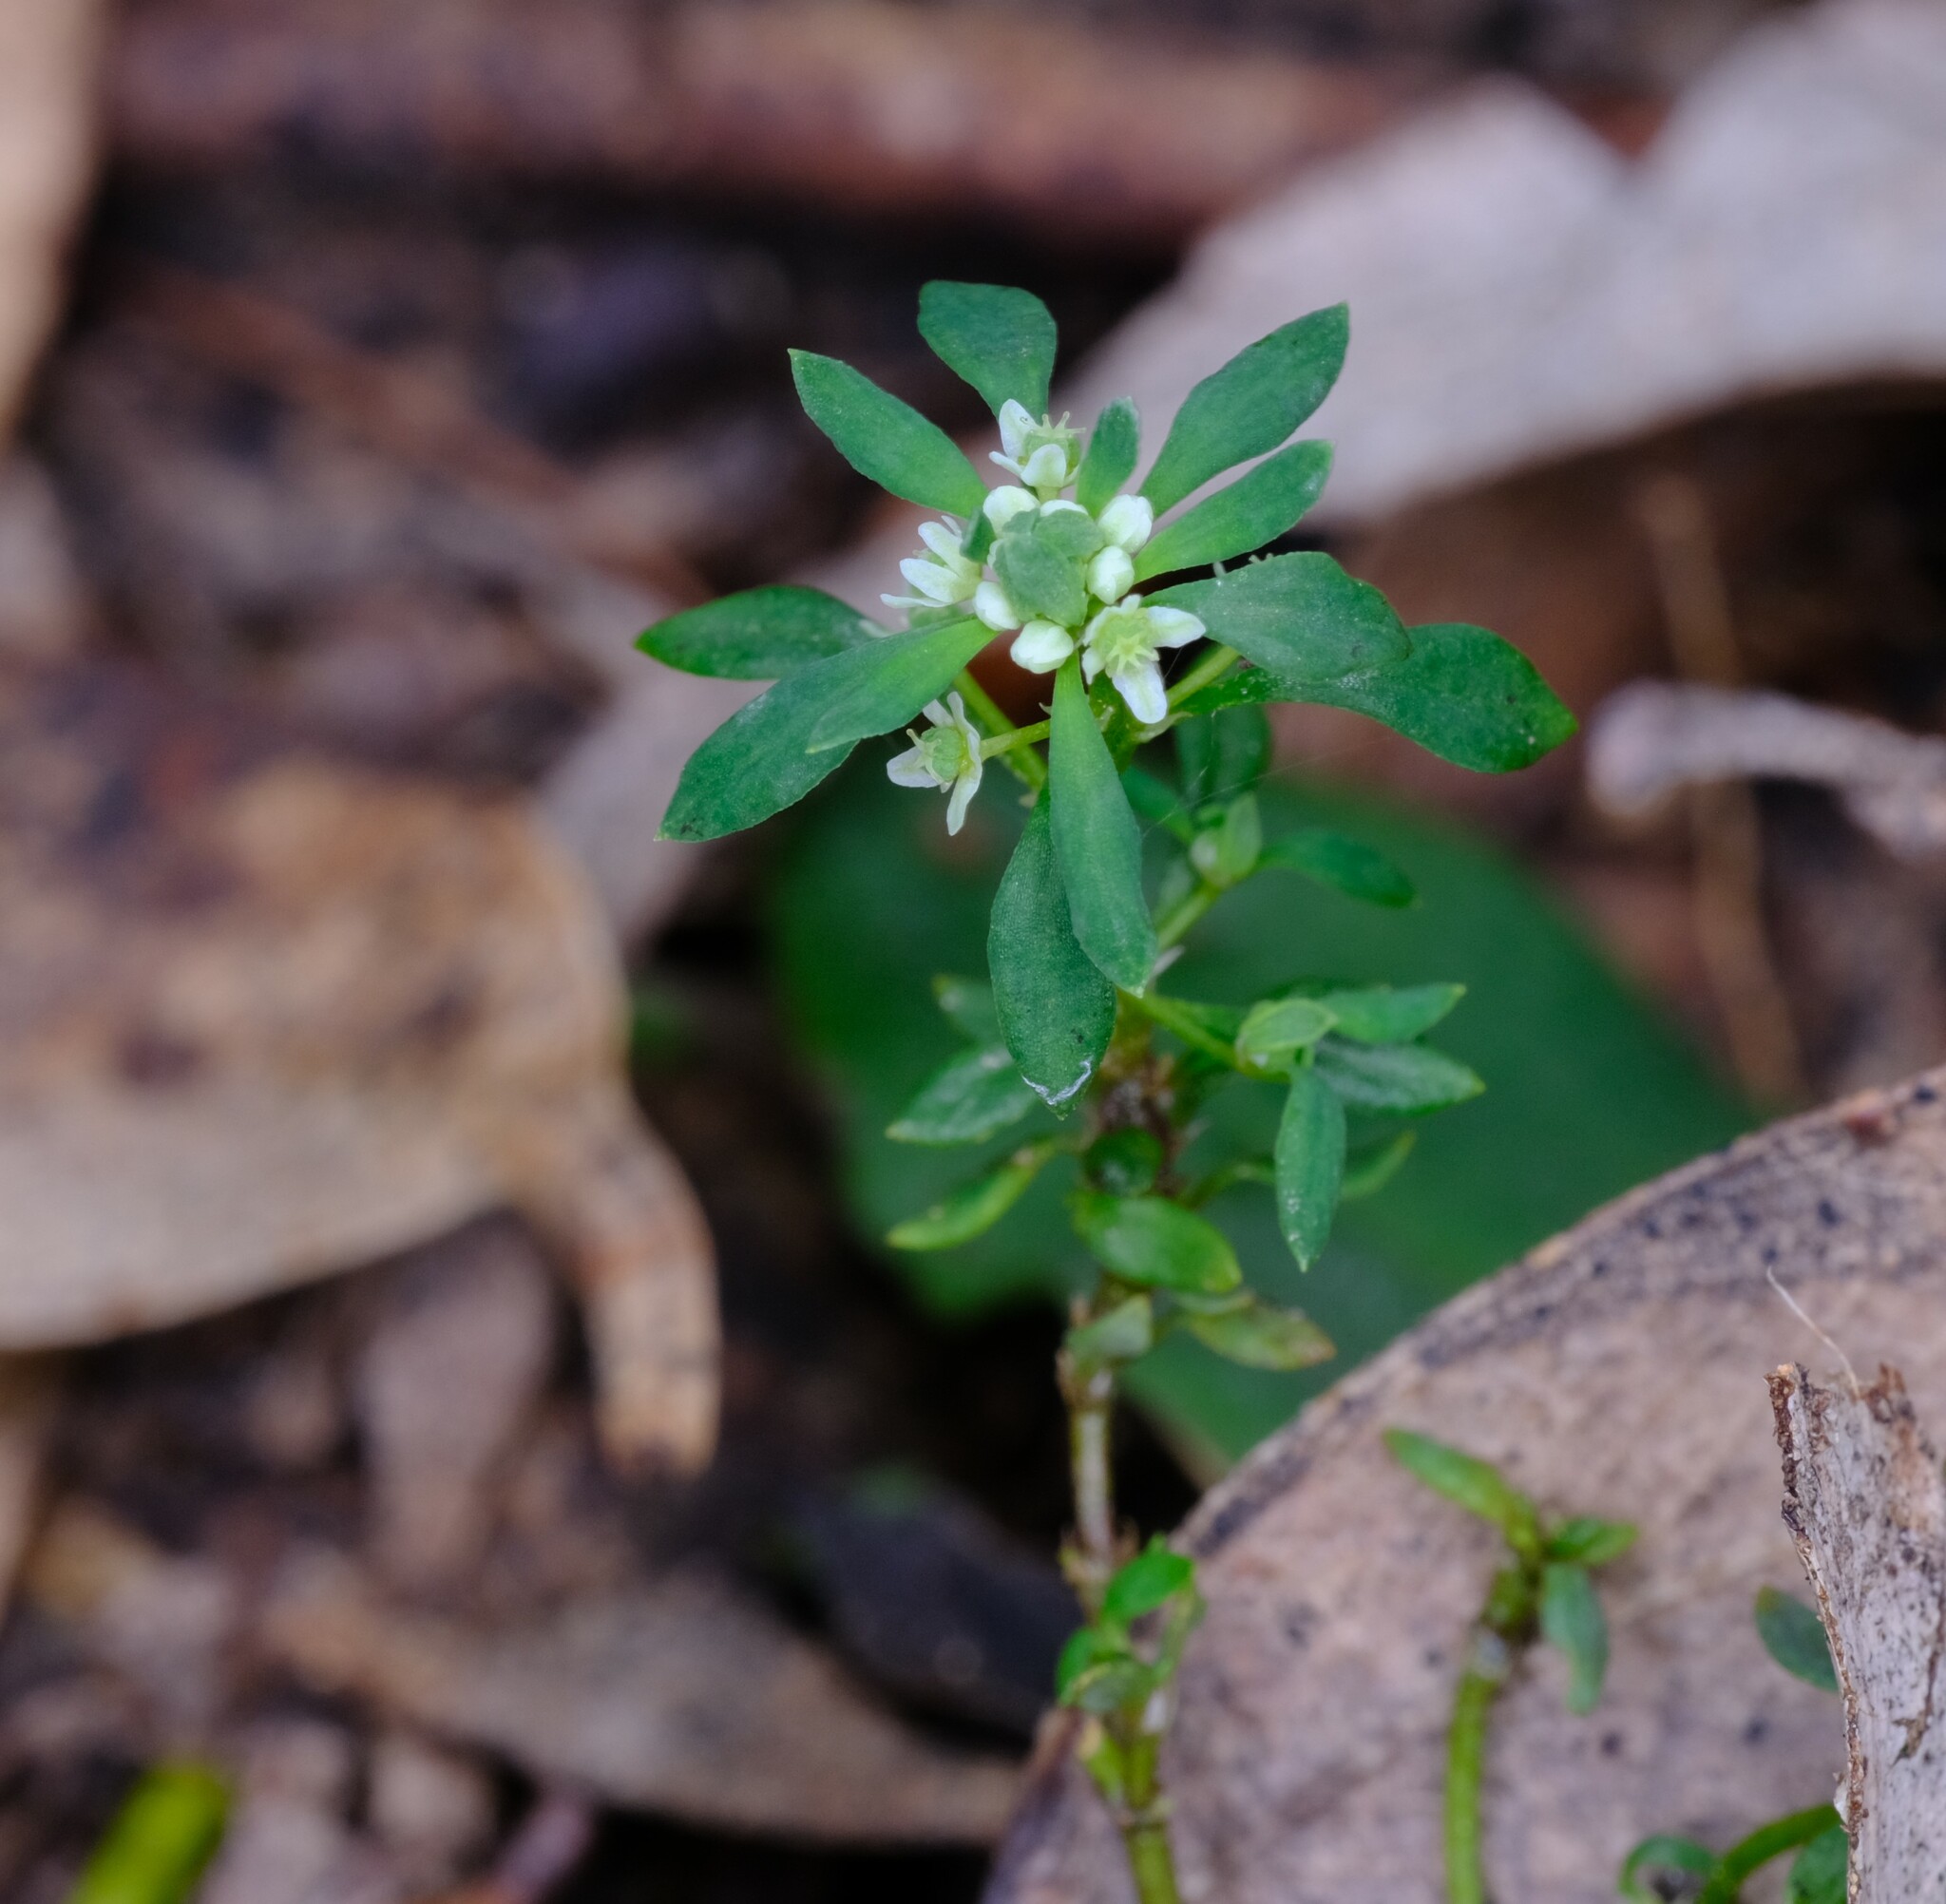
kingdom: Plantae
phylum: Tracheophyta
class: Magnoliopsida
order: Malpighiales
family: Phyllanthaceae
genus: Poranthera
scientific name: Poranthera microphylla
